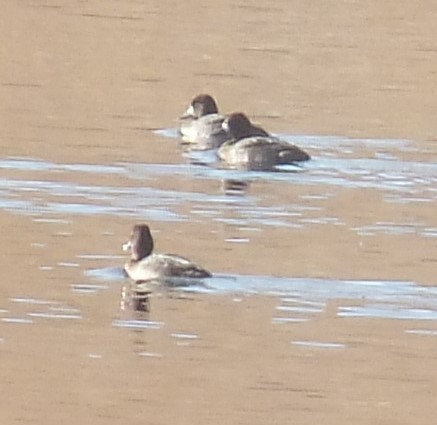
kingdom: Animalia
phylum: Chordata
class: Aves
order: Anseriformes
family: Anatidae
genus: Aythya
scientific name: Aythya affinis
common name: Lesser scaup
